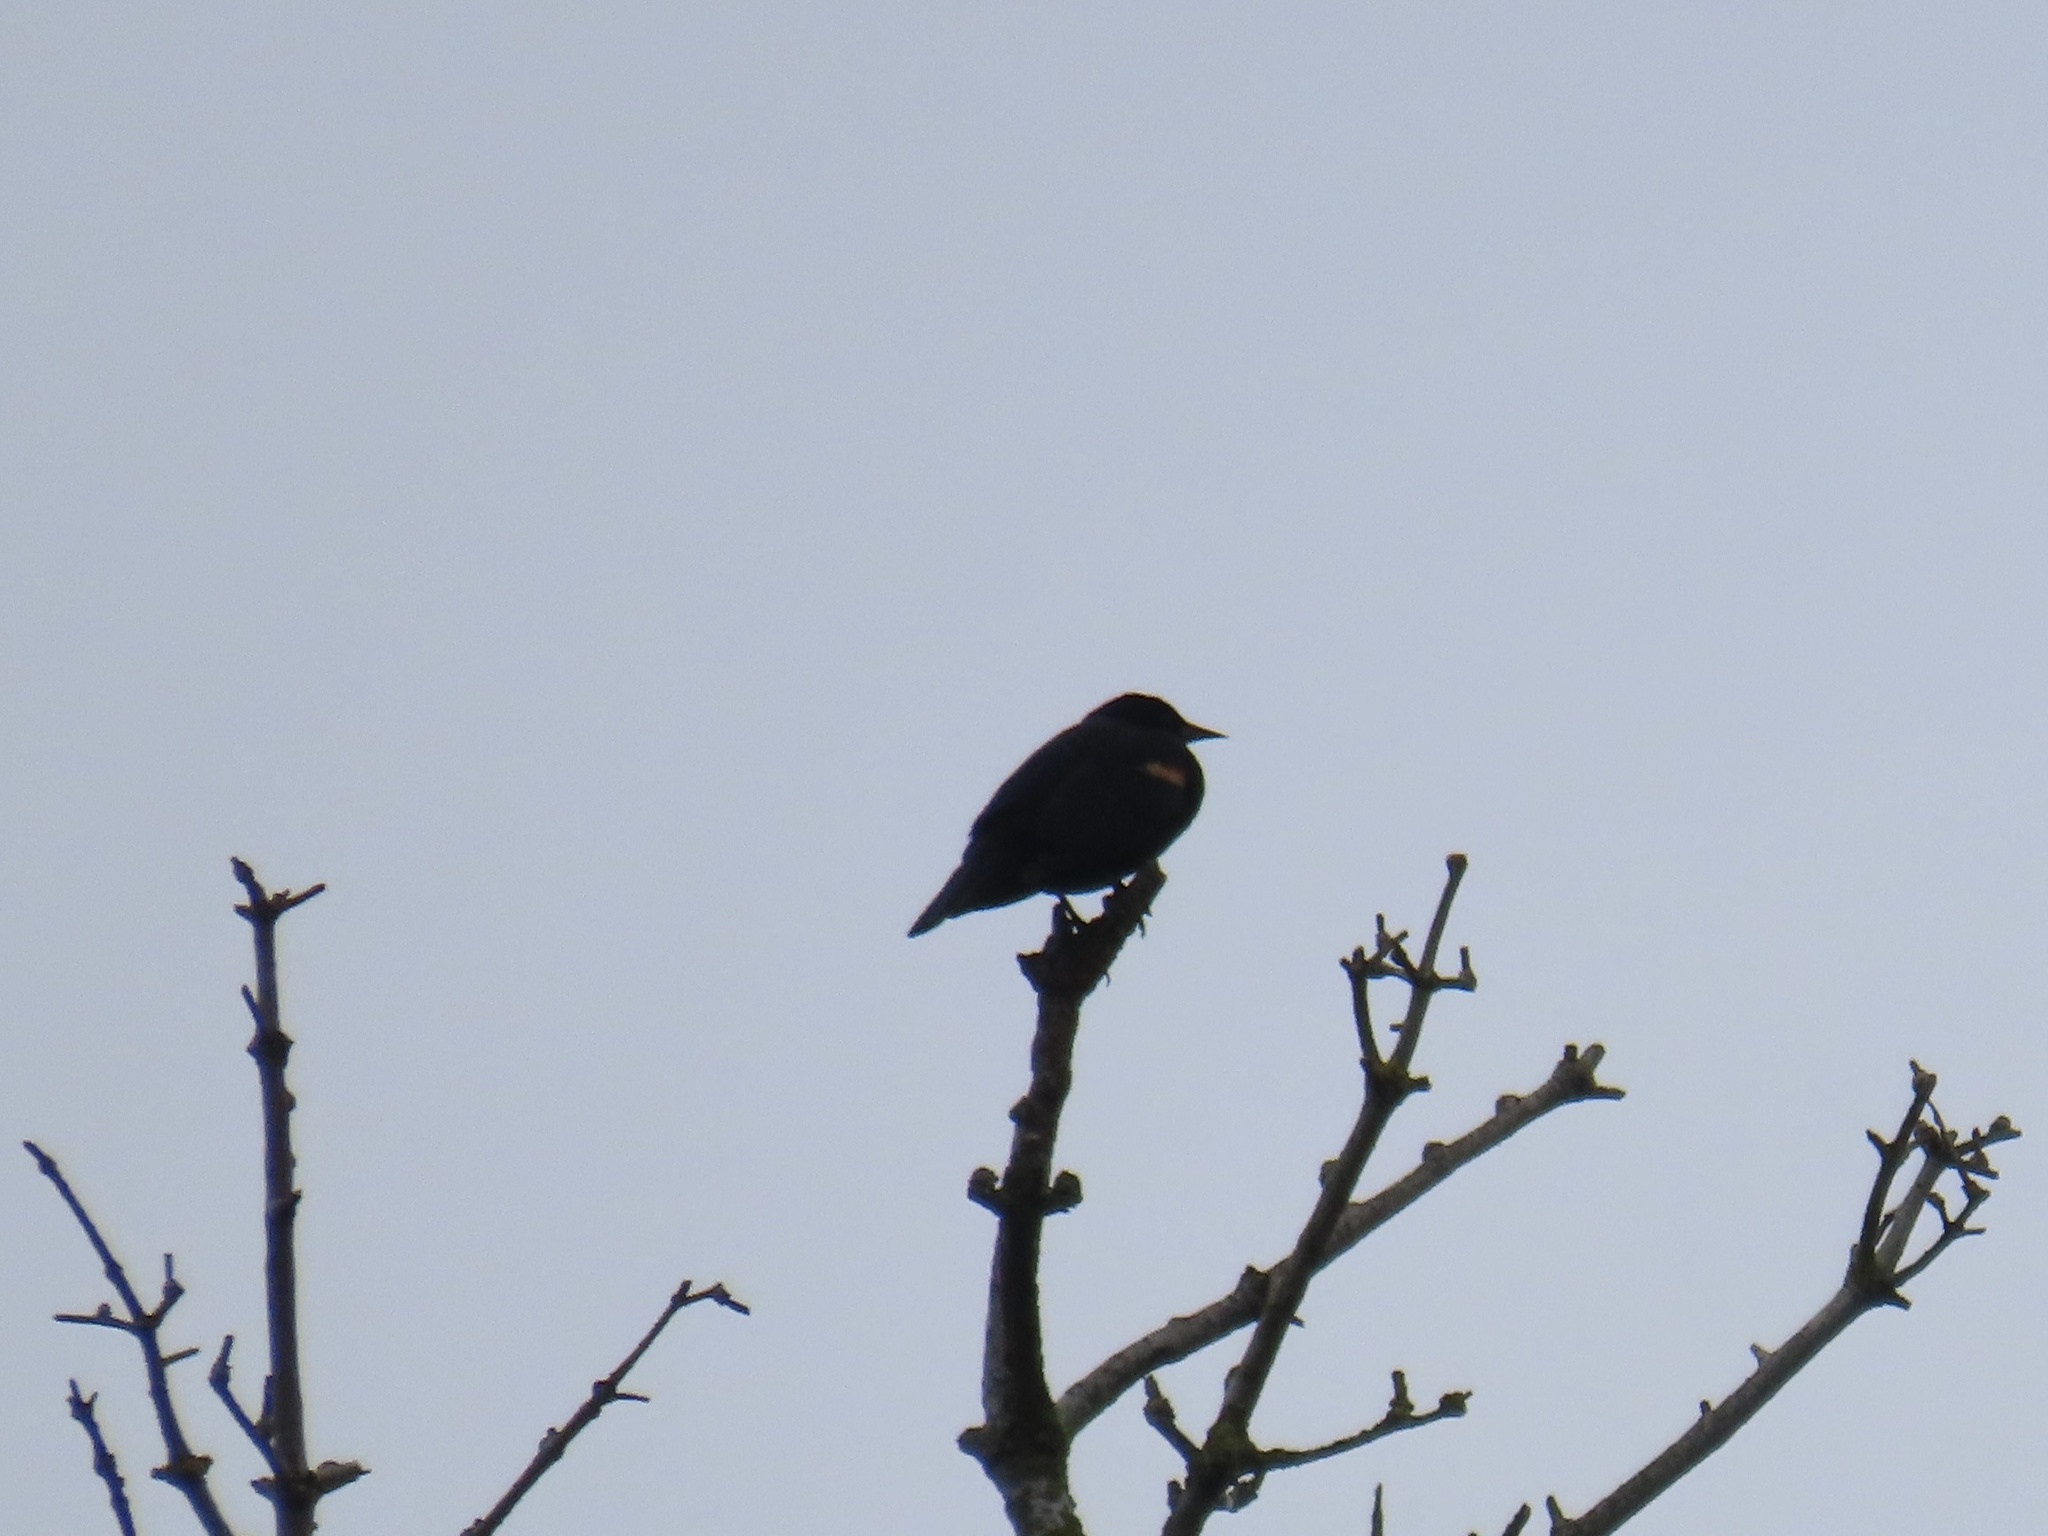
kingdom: Animalia
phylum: Chordata
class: Aves
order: Passeriformes
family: Icteridae
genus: Agelaius
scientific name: Agelaius phoeniceus
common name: Red-winged blackbird
